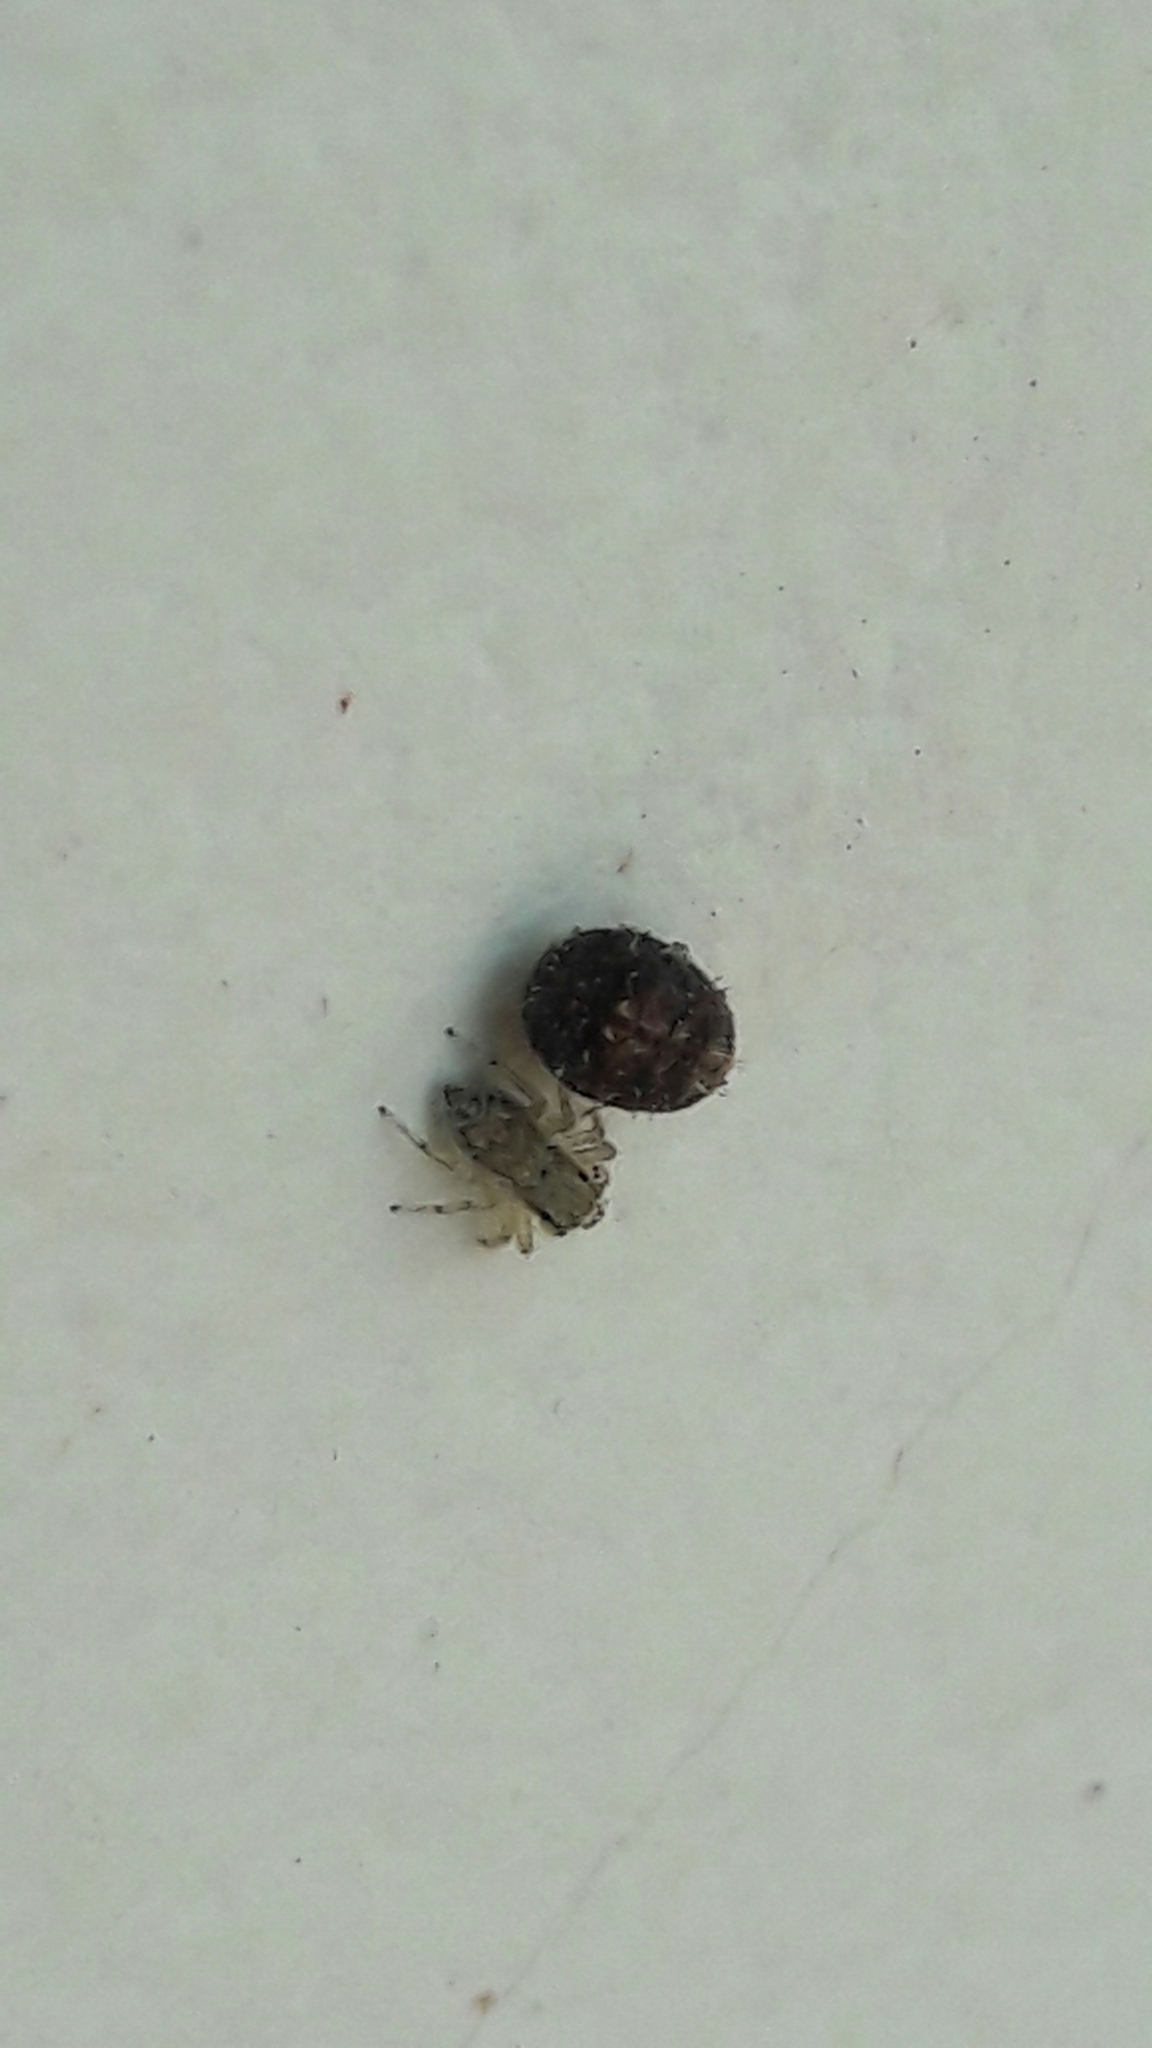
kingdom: Animalia
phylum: Arthropoda
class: Arachnida
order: Araneae
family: Salticidae
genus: Menemerus
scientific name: Menemerus bivittatus
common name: Gray wall jumper
